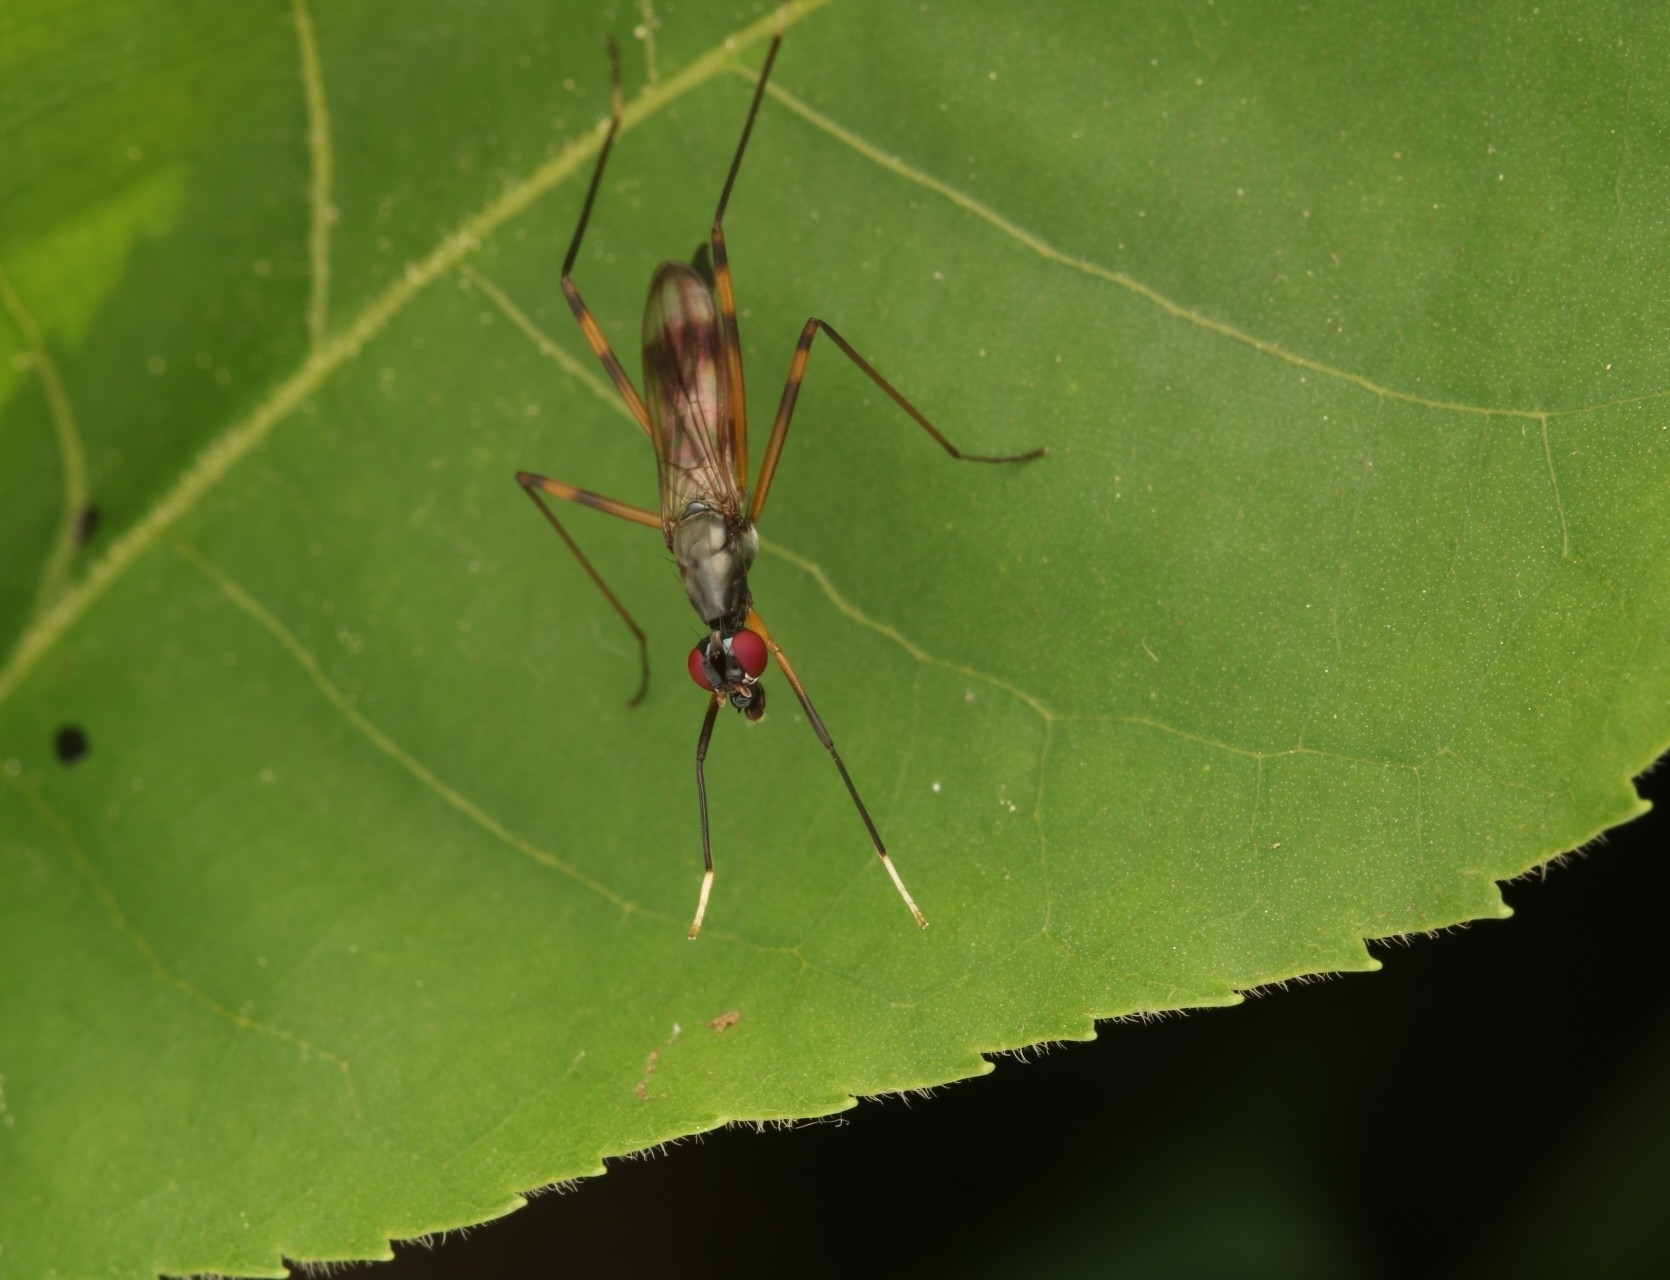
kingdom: Animalia
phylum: Arthropoda
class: Insecta
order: Diptera
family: Micropezidae
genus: Rainieria
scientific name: Rainieria antennaepes
